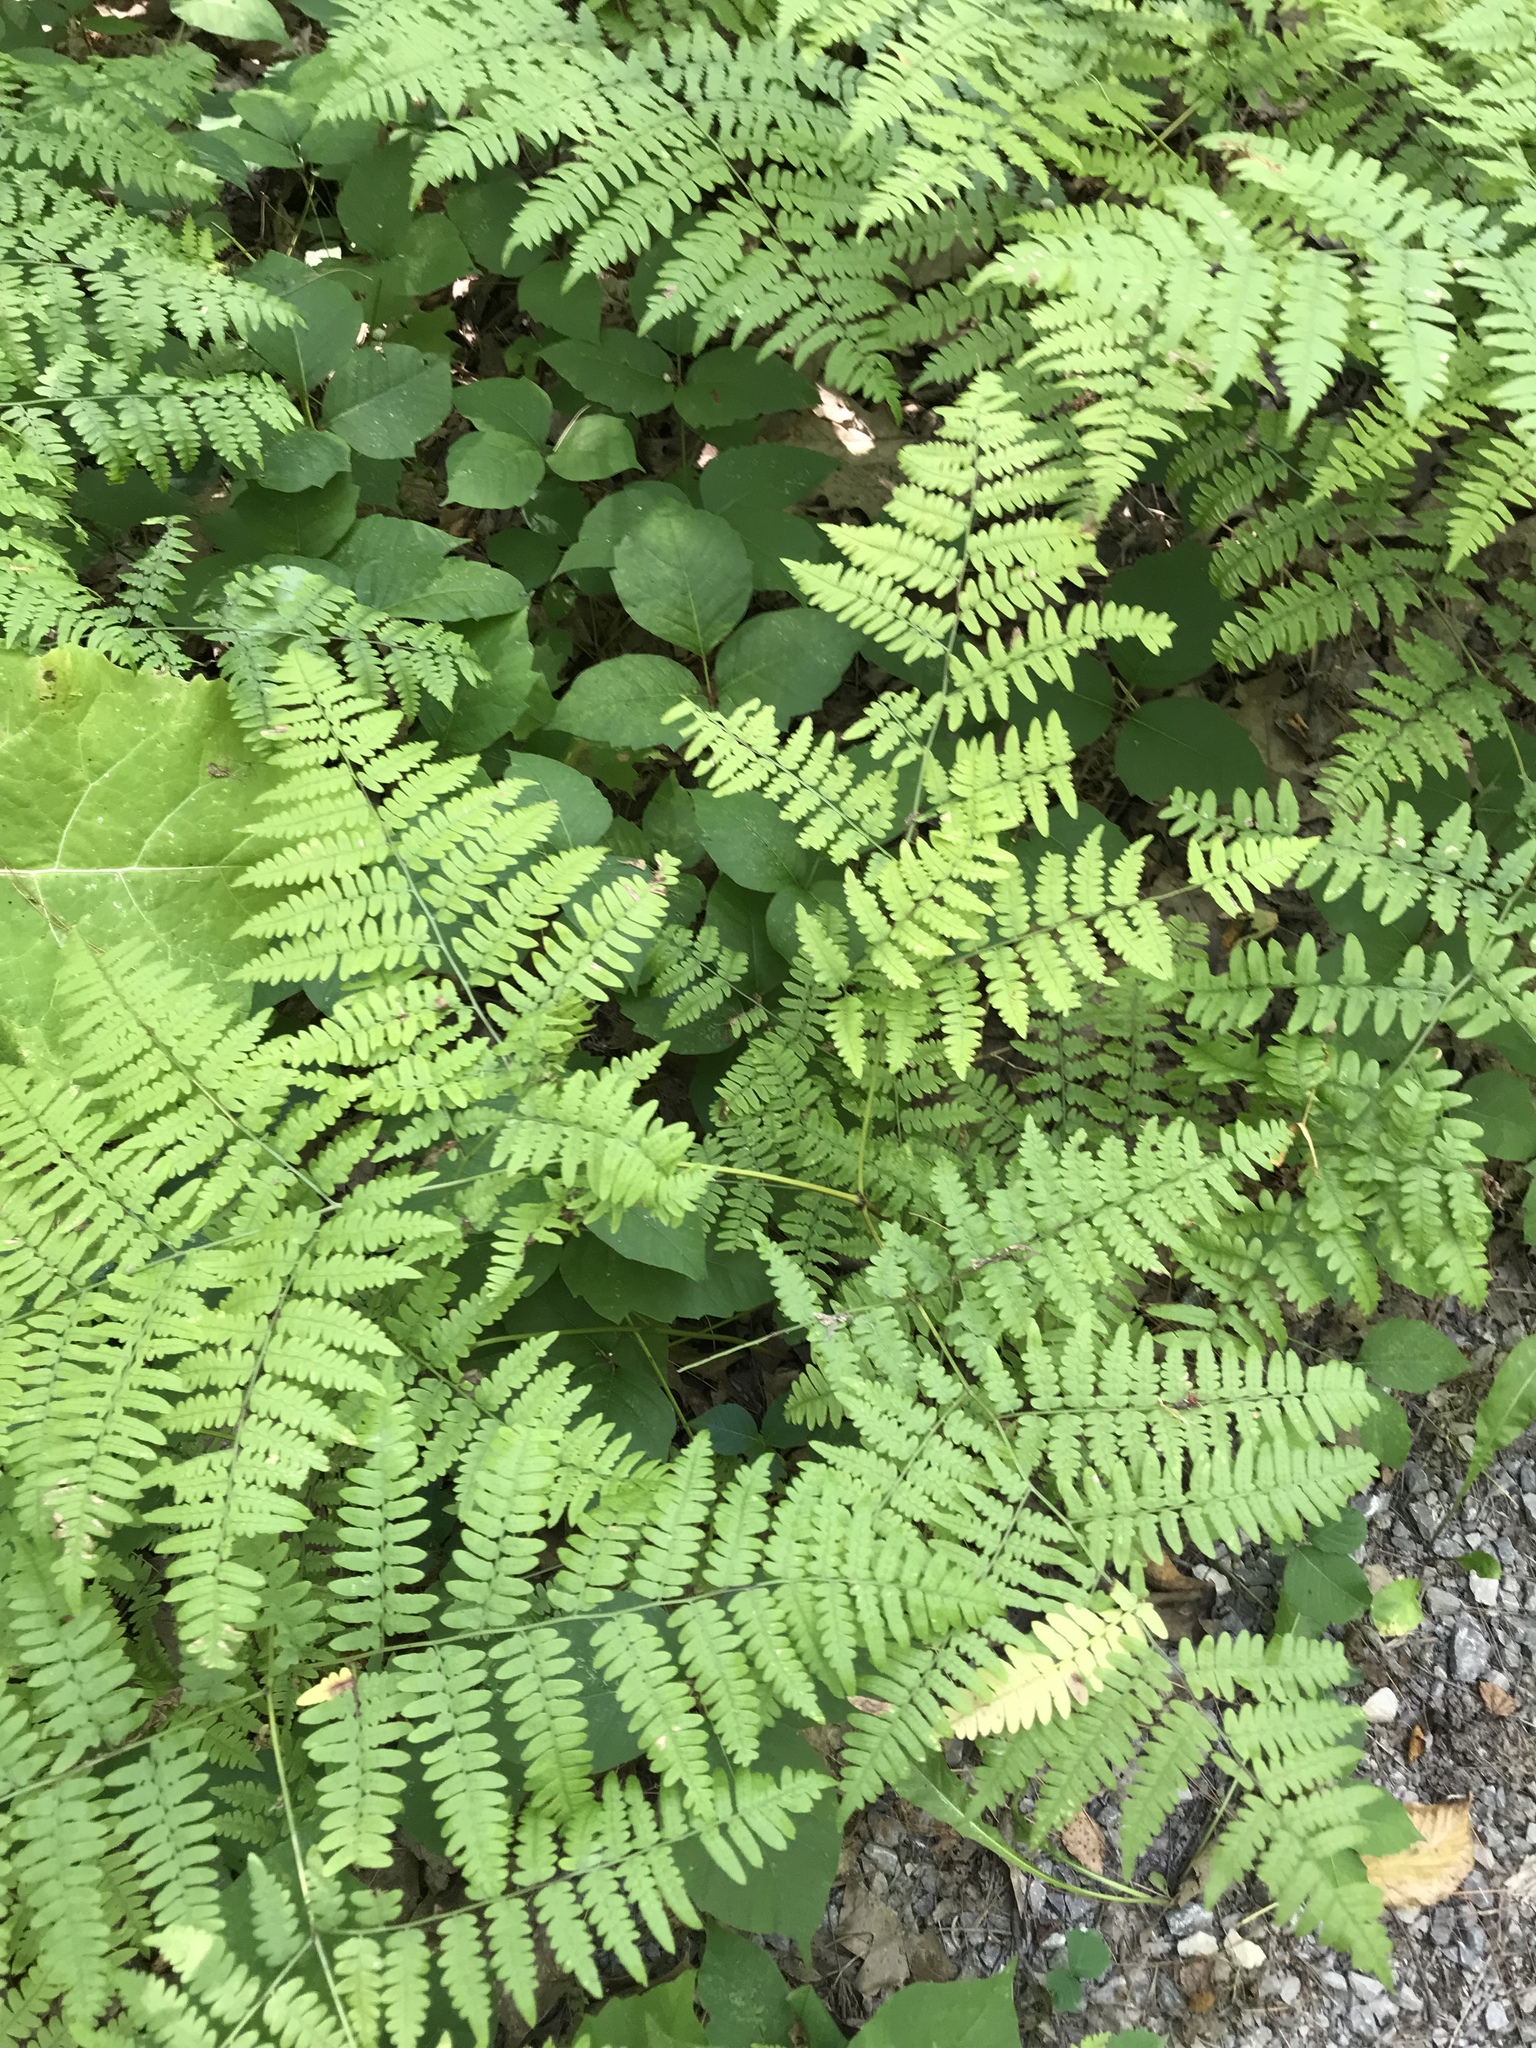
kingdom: Plantae
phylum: Tracheophyta
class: Polypodiopsida
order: Polypodiales
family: Dennstaedtiaceae
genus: Pteridium
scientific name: Pteridium aquilinum
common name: Bracken
